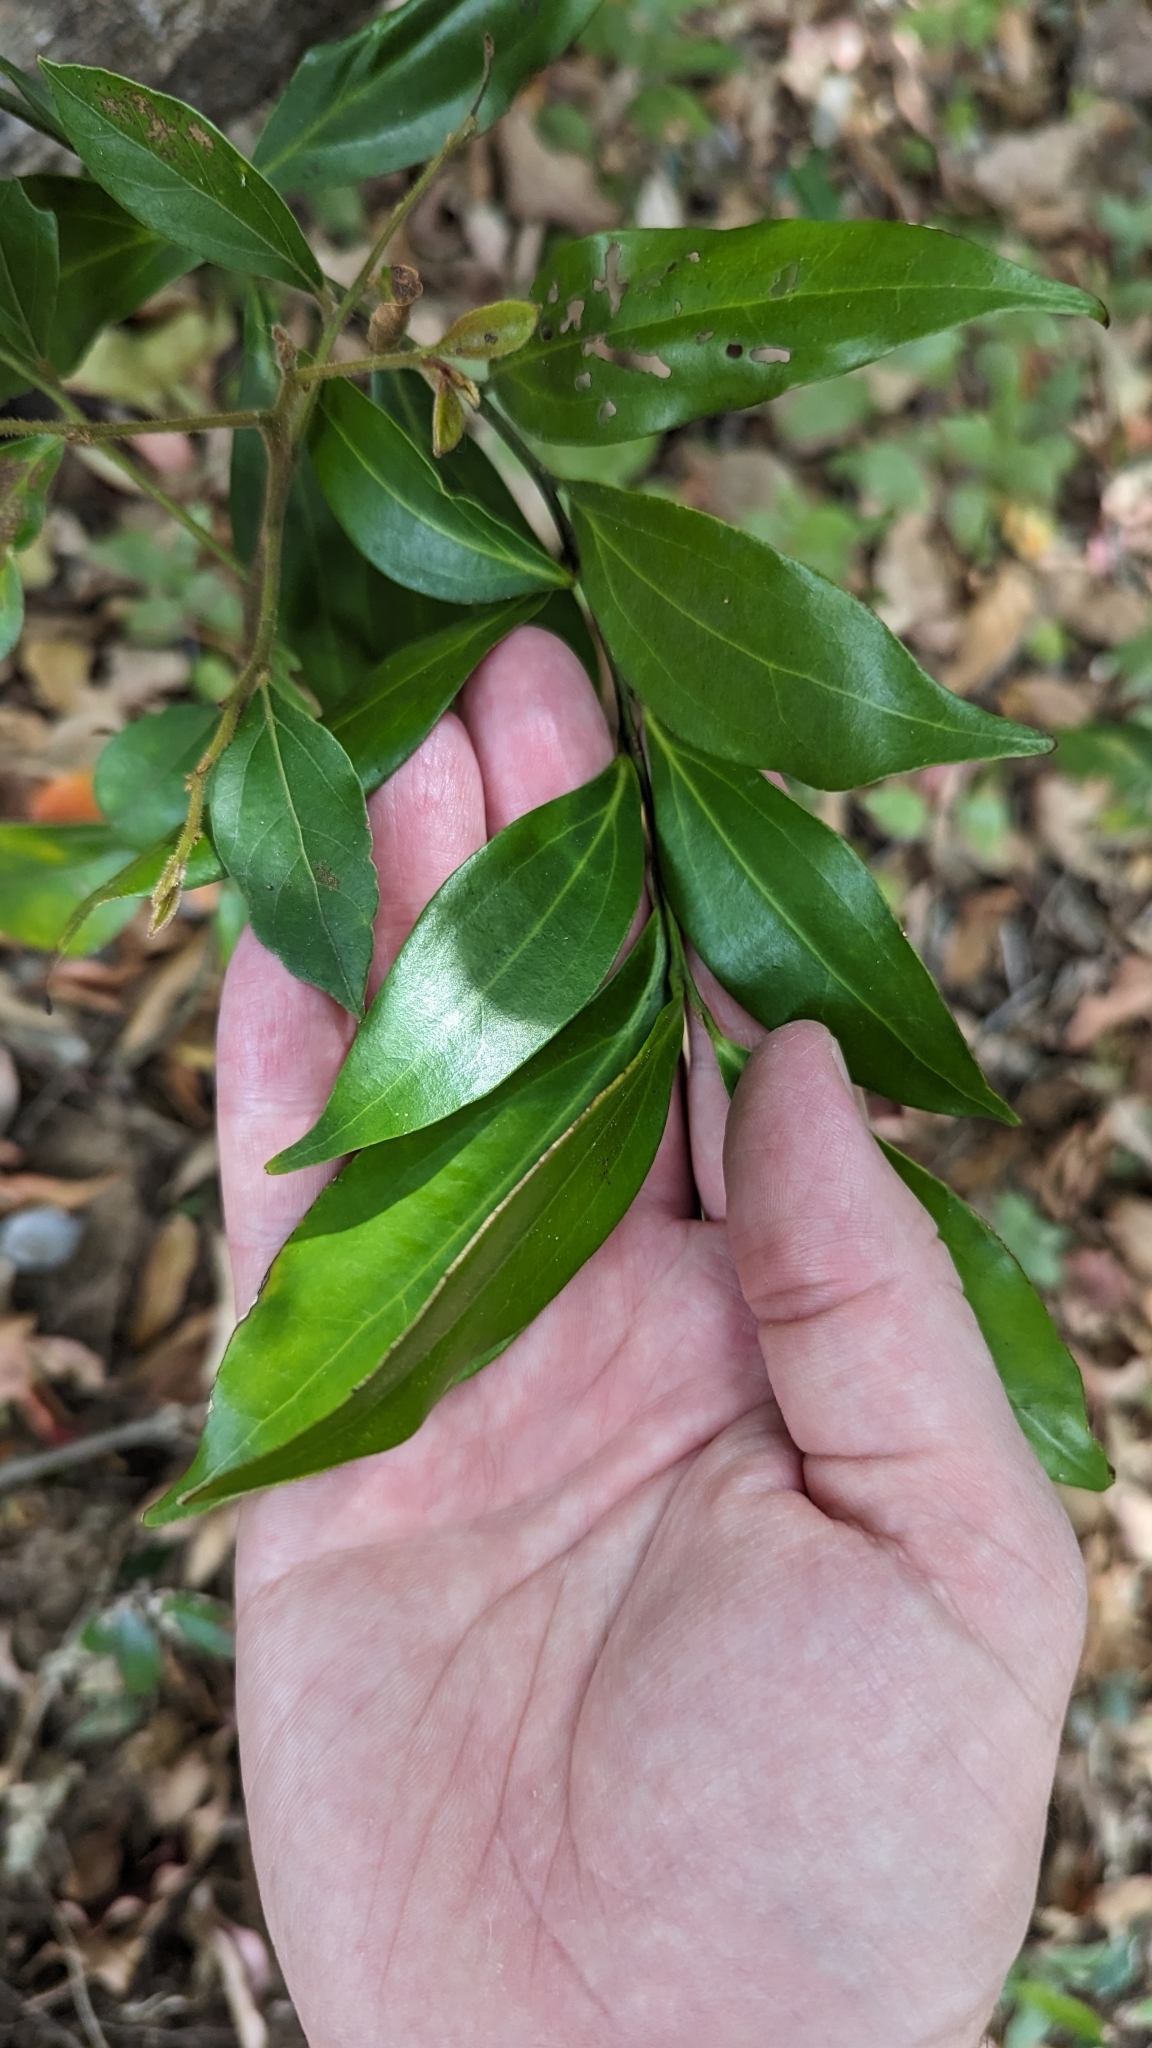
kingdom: Plantae
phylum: Tracheophyta
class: Magnoliopsida
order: Laurales
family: Lauraceae
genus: Cryptocarya
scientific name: Cryptocarya laevigata
